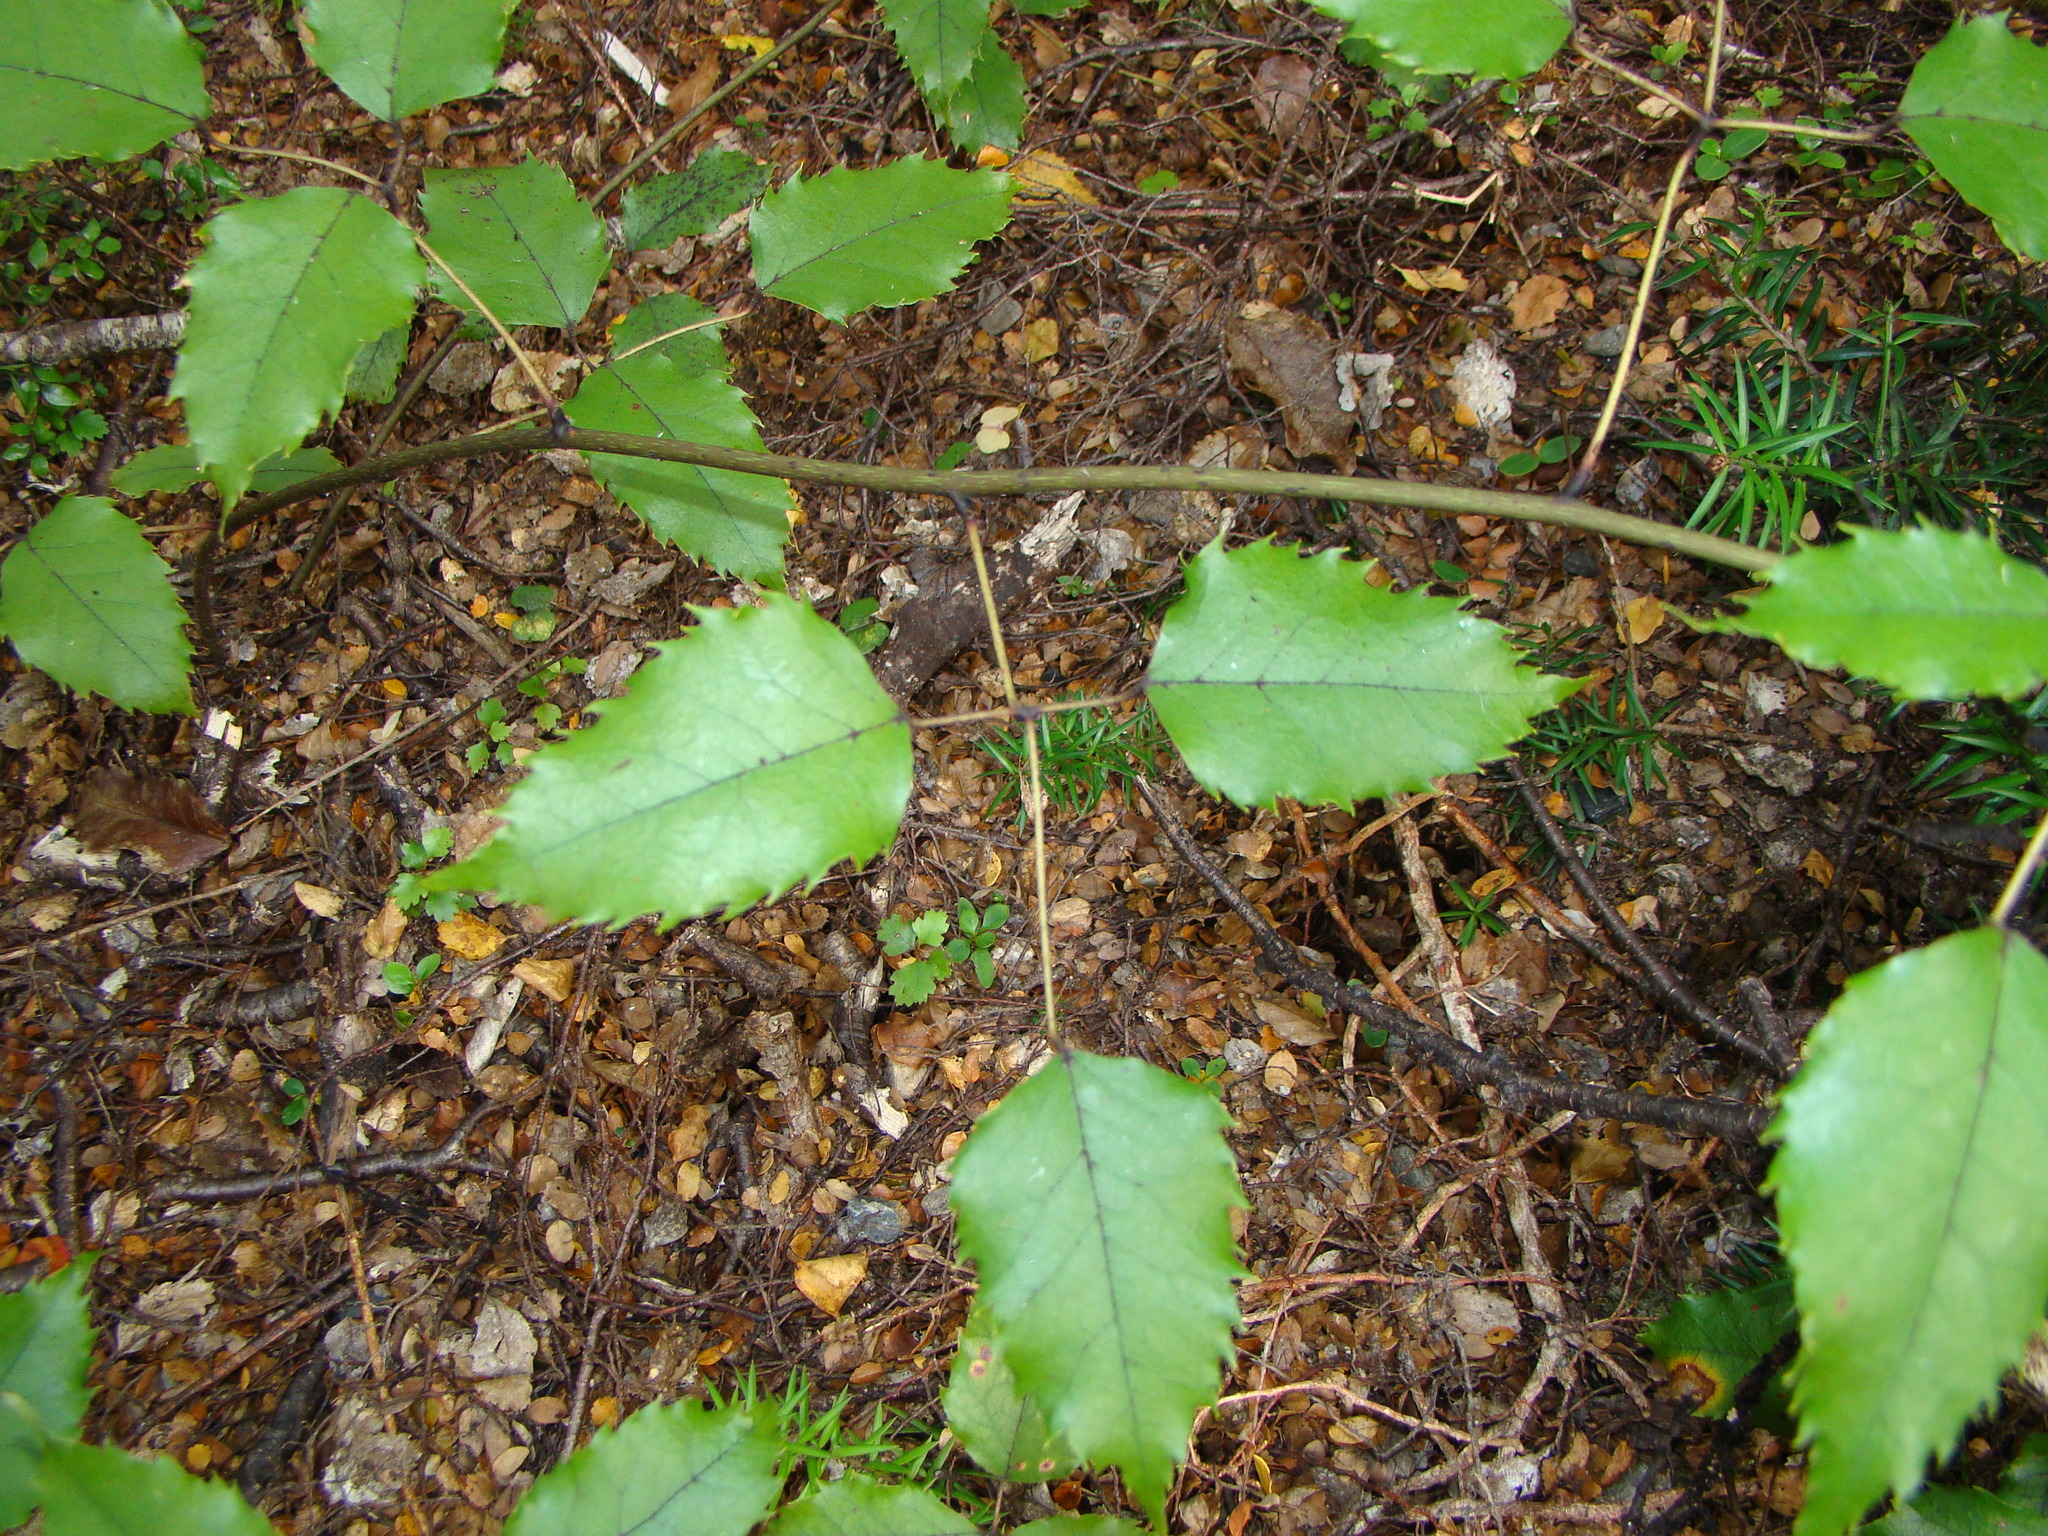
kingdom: Plantae
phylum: Tracheophyta
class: Magnoliopsida
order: Rosales
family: Rosaceae
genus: Rubus
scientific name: Rubus cissoides
